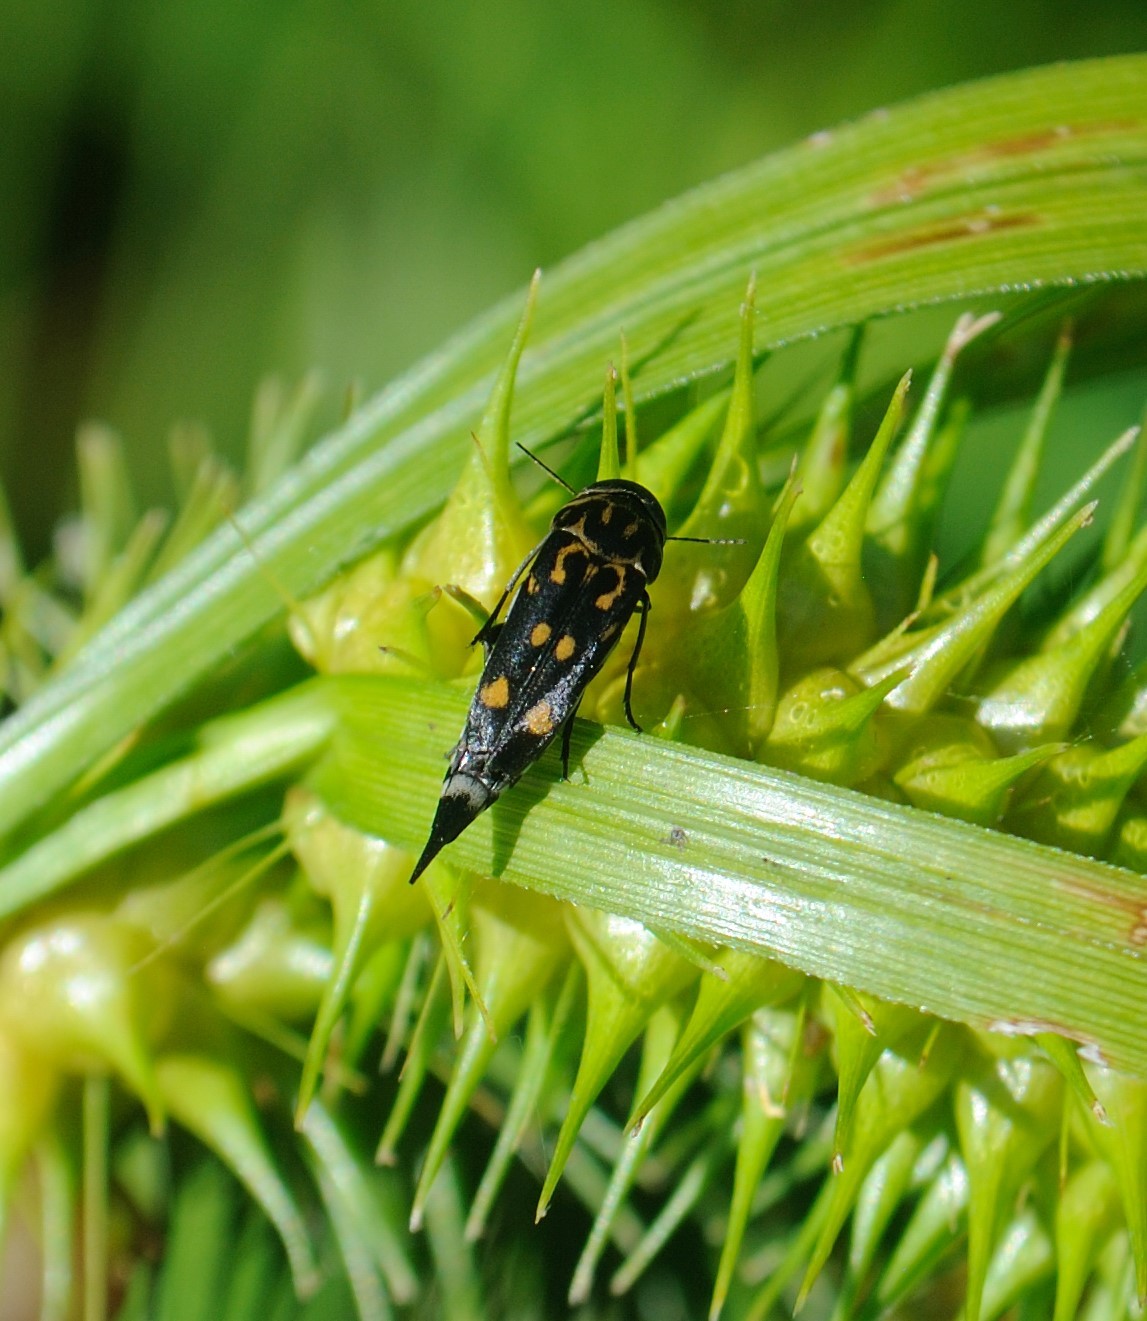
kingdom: Animalia
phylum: Arthropoda
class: Insecta
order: Coleoptera
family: Mordellidae
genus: Hoshihananomia
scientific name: Hoshihananomia octopunctata
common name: Eight-spotted tumbling flower beetle
